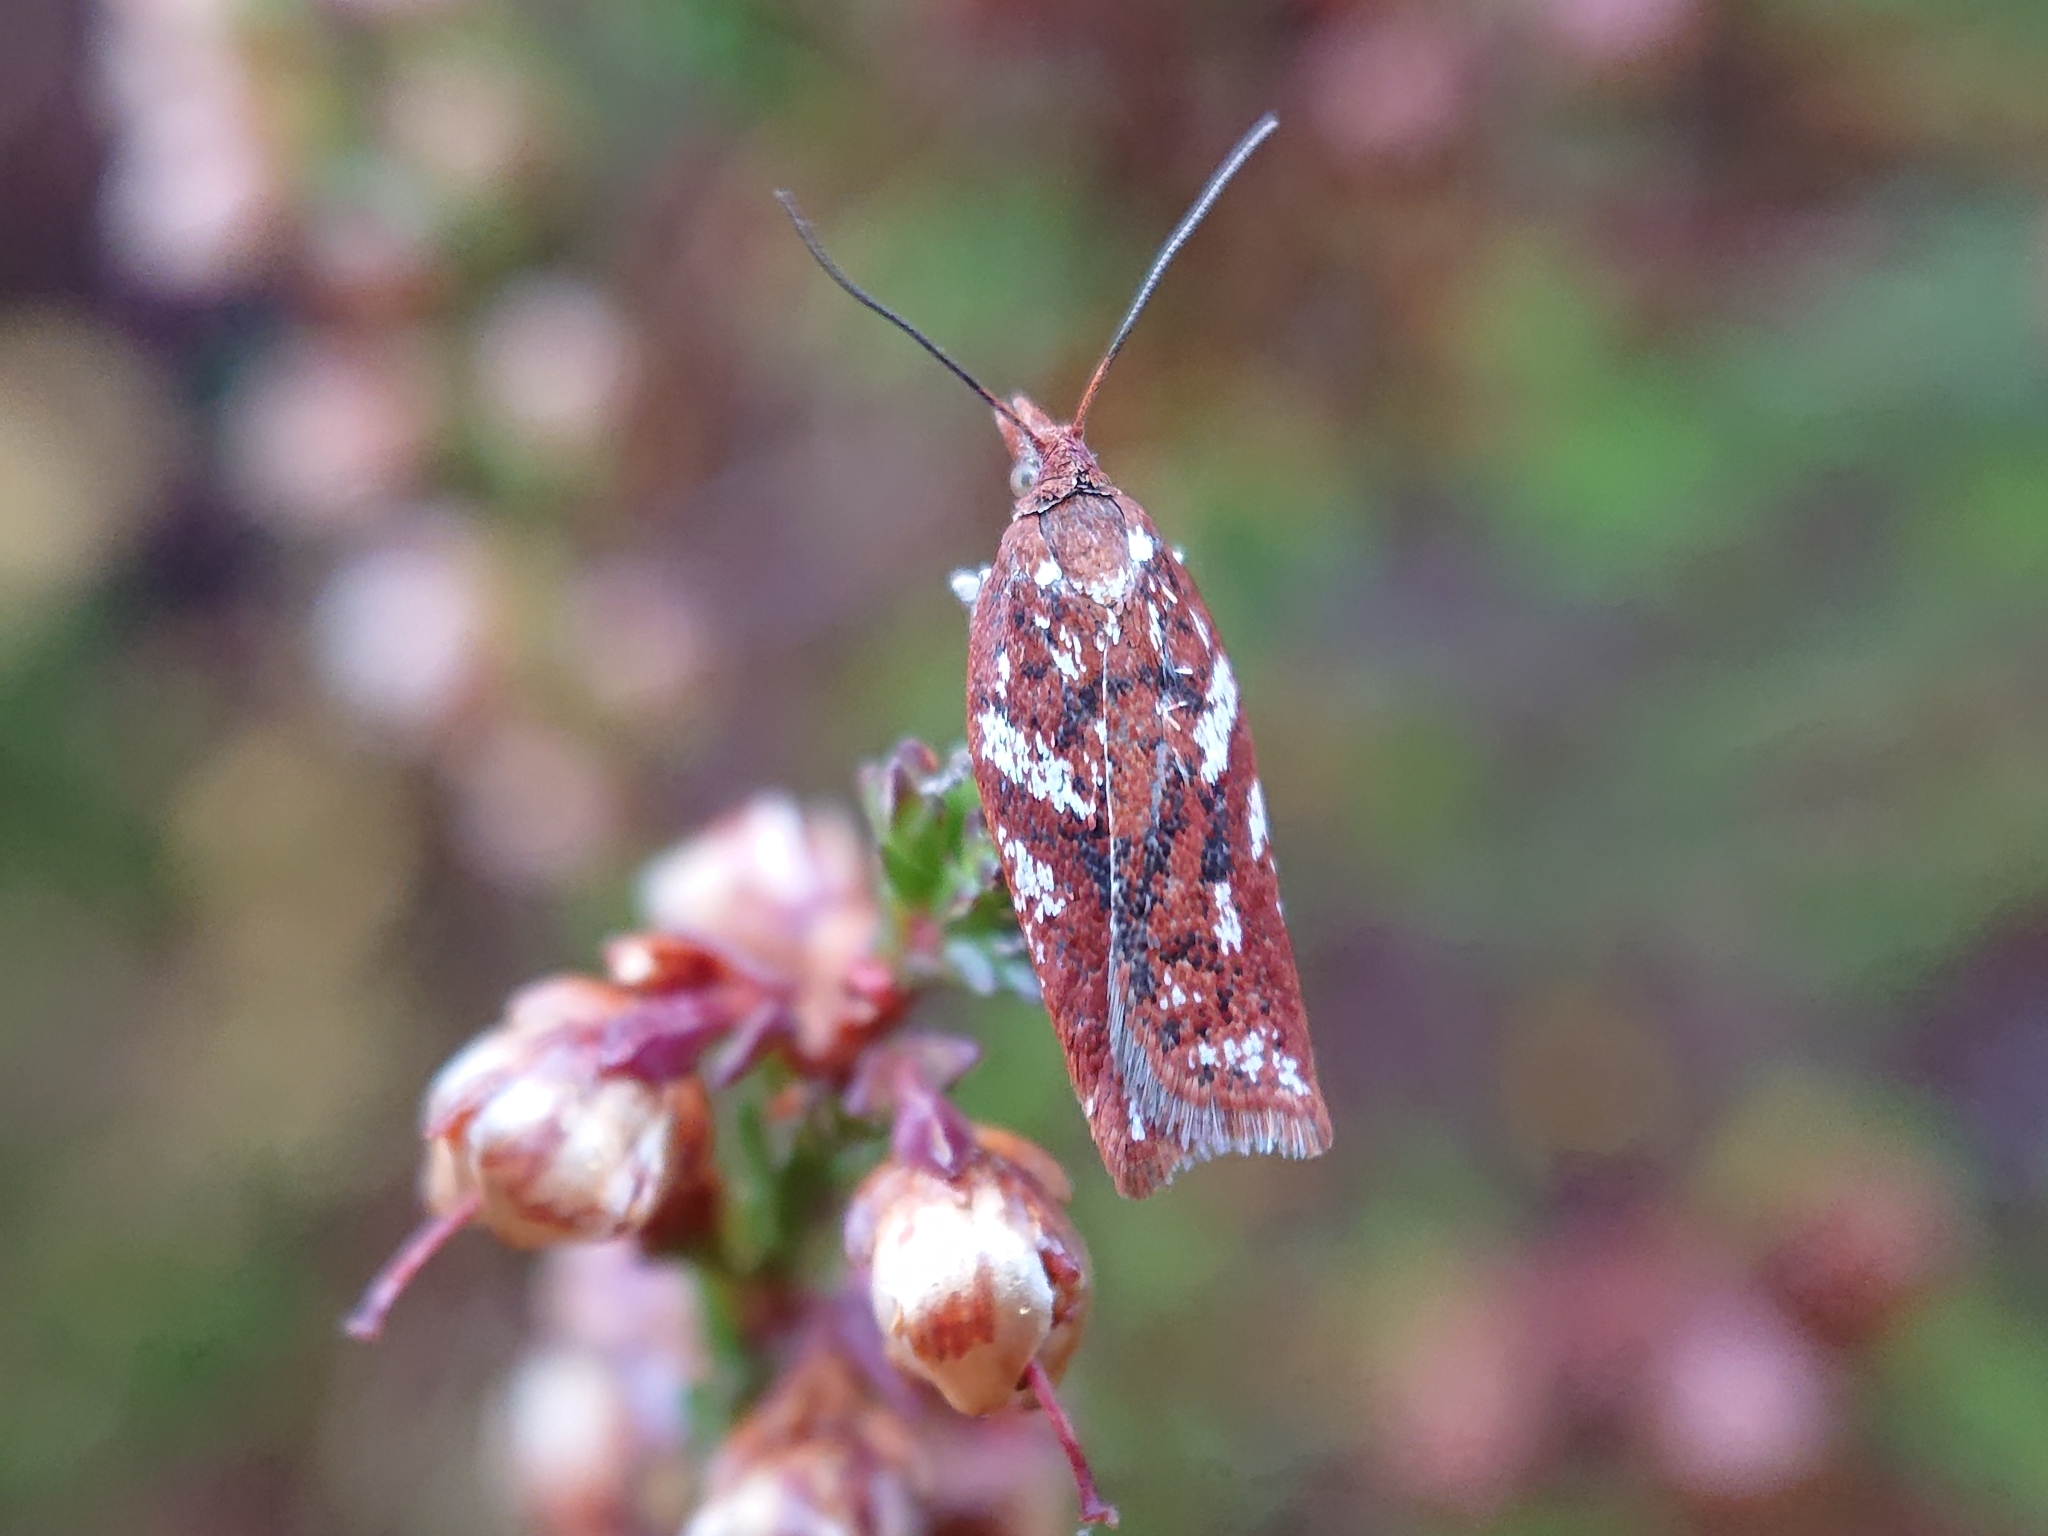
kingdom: Animalia
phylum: Arthropoda
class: Insecta
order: Lepidoptera
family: Tortricidae
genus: Acleris
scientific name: Acleris hyemana
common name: Heath button
